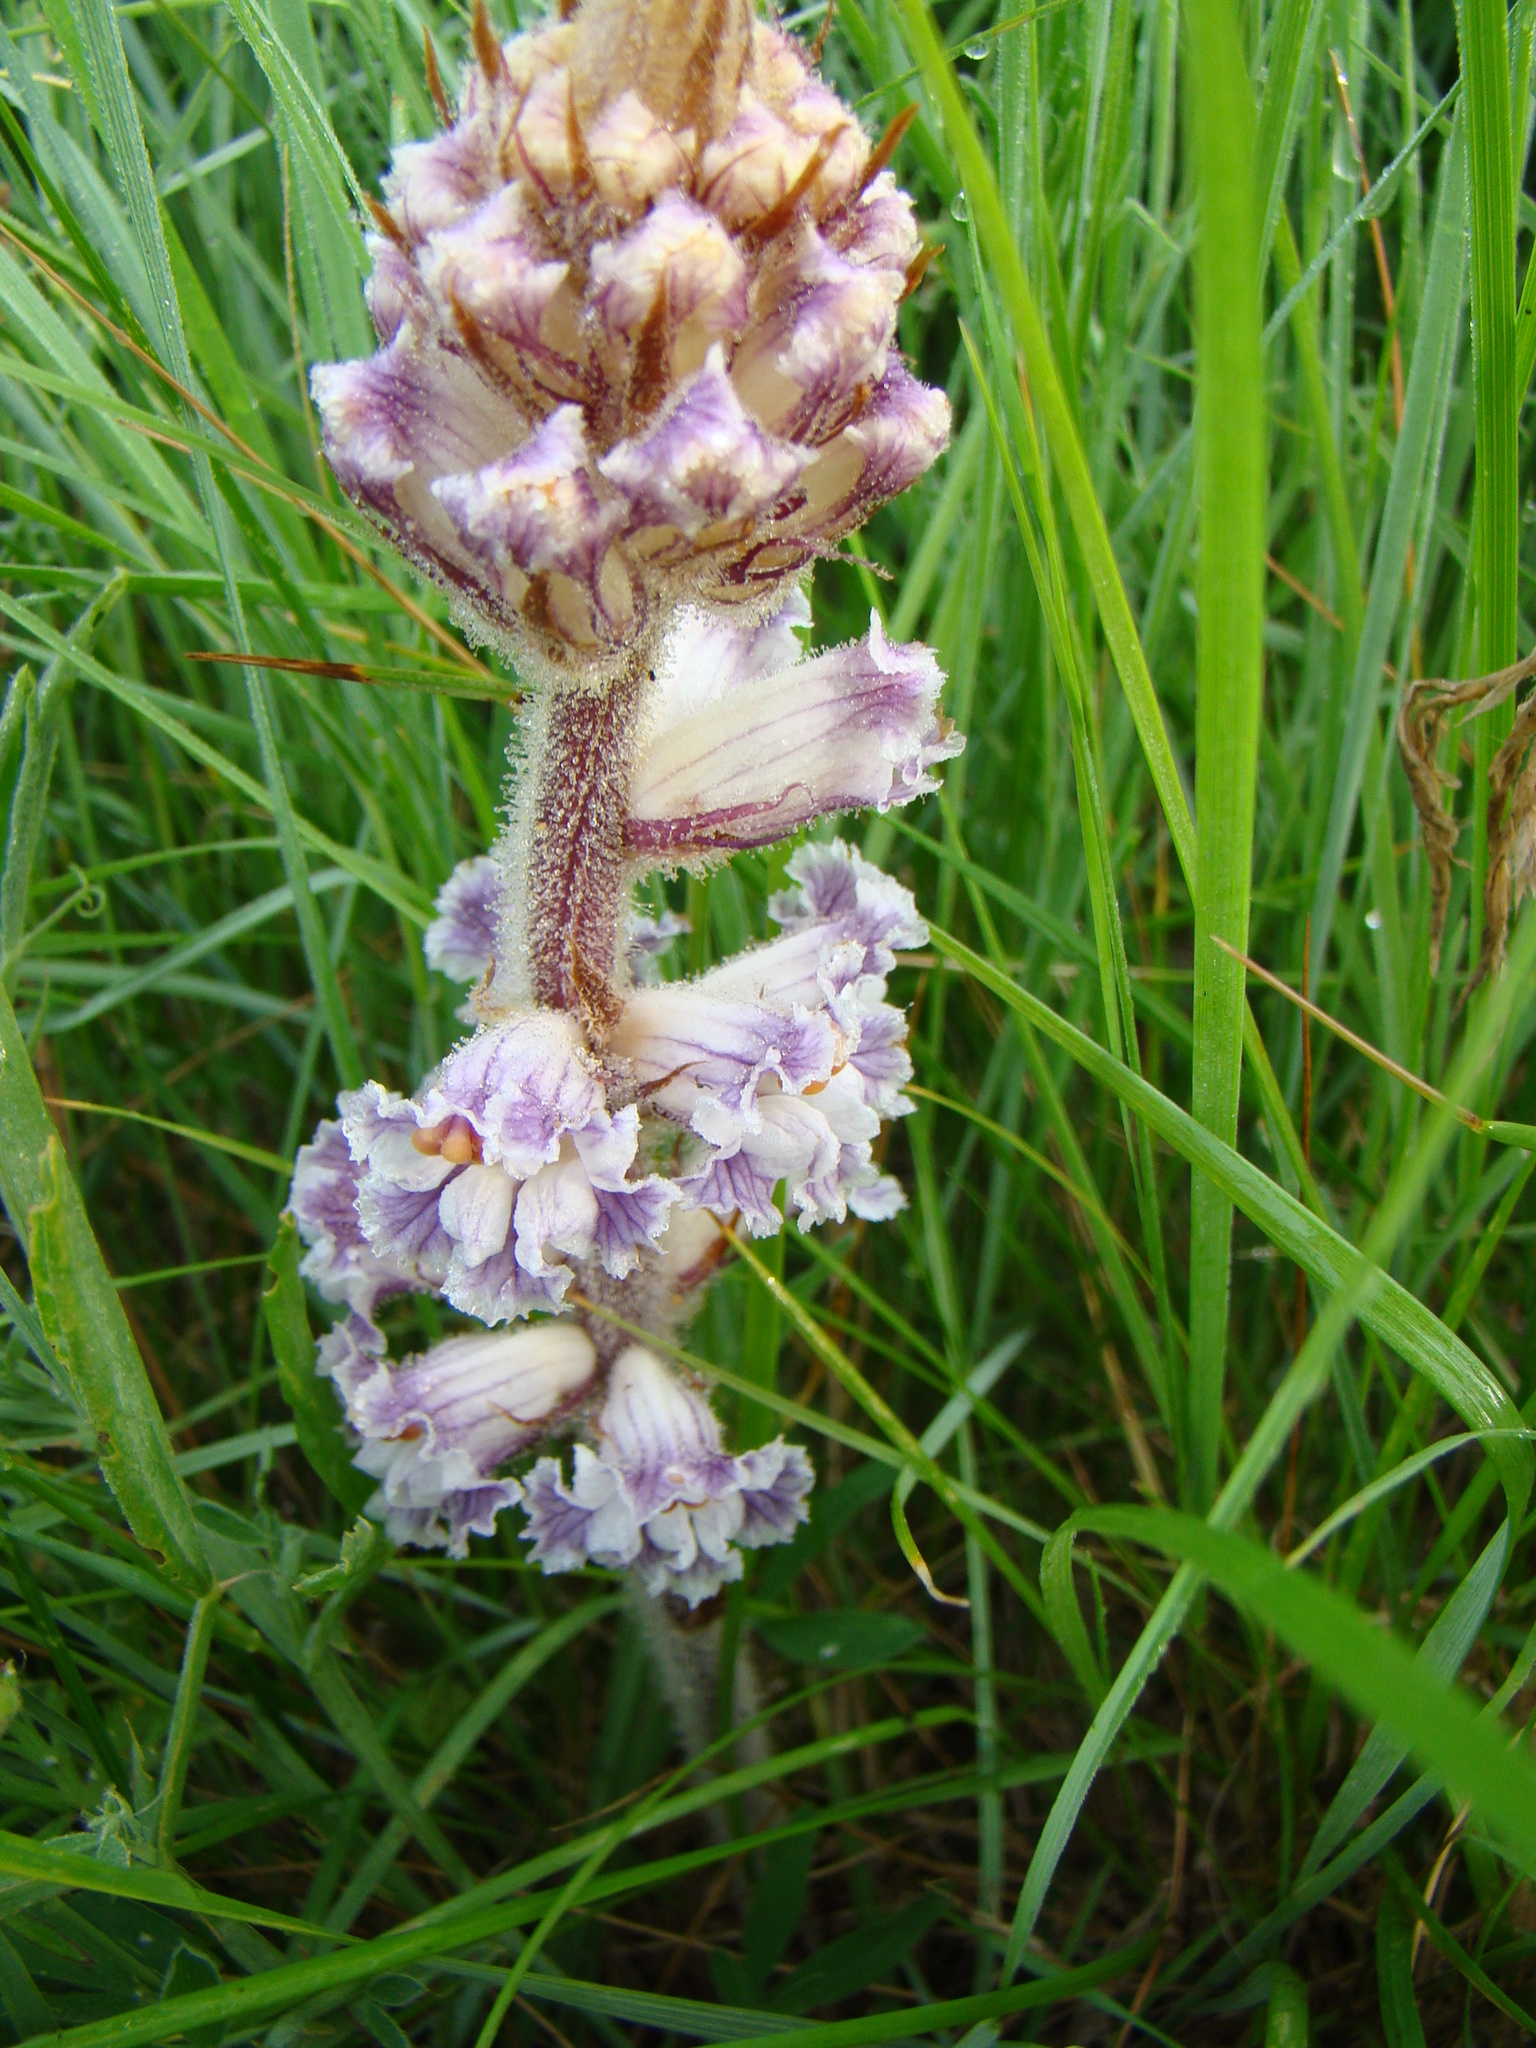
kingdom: Plantae
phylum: Tracheophyta
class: Magnoliopsida
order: Lamiales
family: Orobanchaceae
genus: Orobanche
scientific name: Orobanche crenata
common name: Bean broomrape
